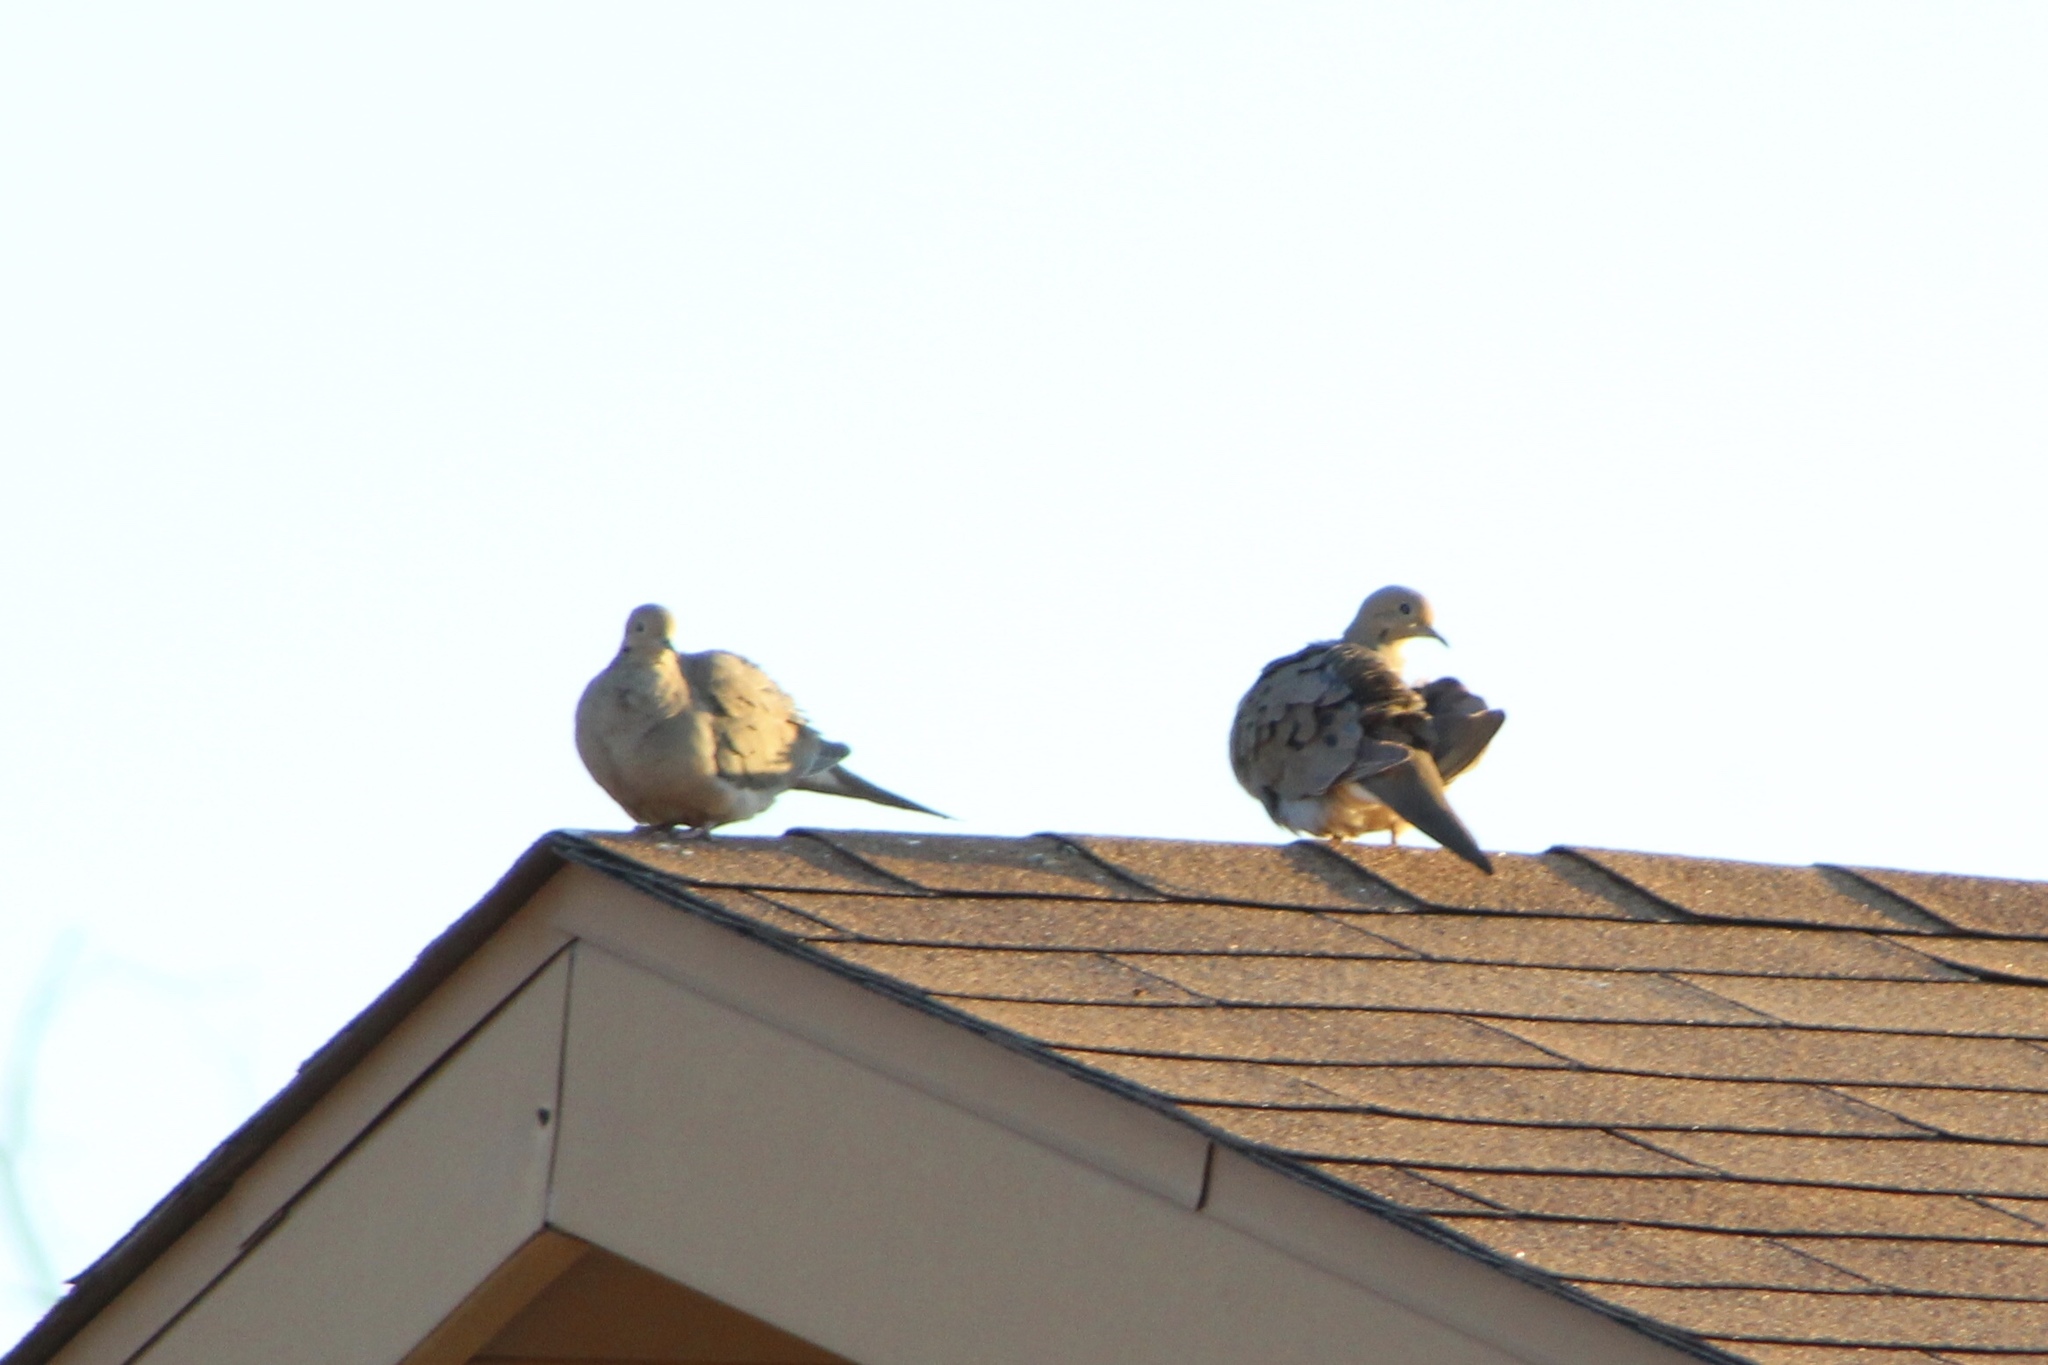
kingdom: Animalia
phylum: Chordata
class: Aves
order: Columbiformes
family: Columbidae
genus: Zenaida
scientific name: Zenaida macroura
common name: Mourning dove
